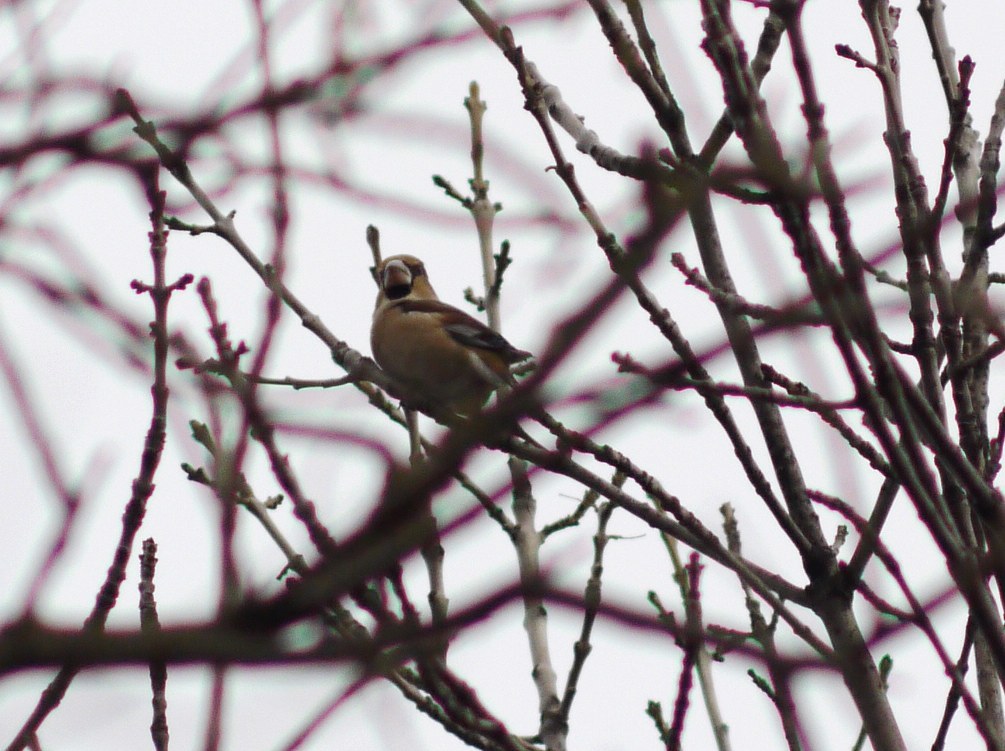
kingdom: Animalia
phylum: Chordata
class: Aves
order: Passeriformes
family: Fringillidae
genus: Coccothraustes
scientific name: Coccothraustes coccothraustes
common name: Hawfinch
